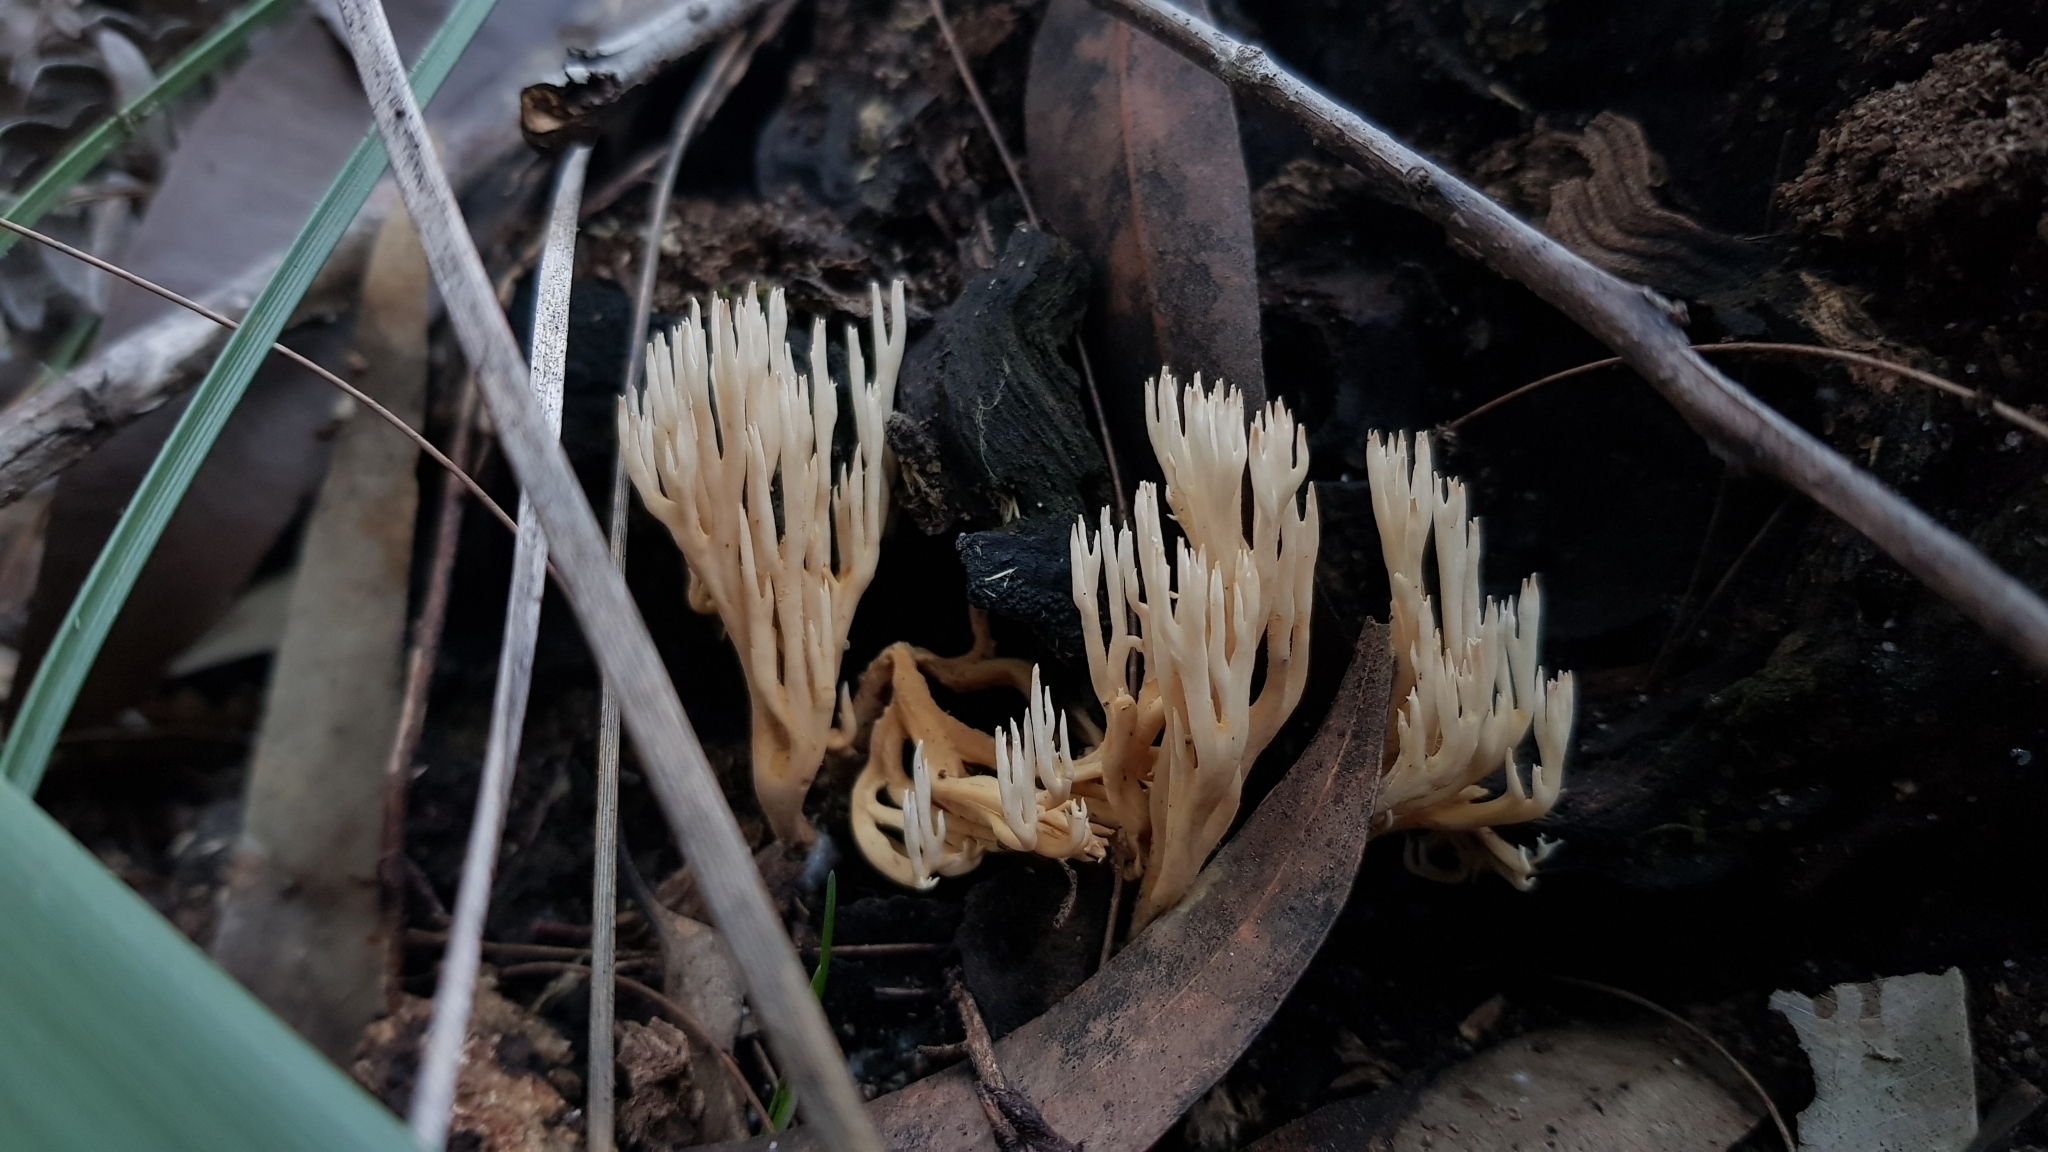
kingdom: Fungi
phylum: Basidiomycota
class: Agaricomycetes
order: Gomphales
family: Gomphaceae
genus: Ramaria
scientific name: Ramaria filicicola
